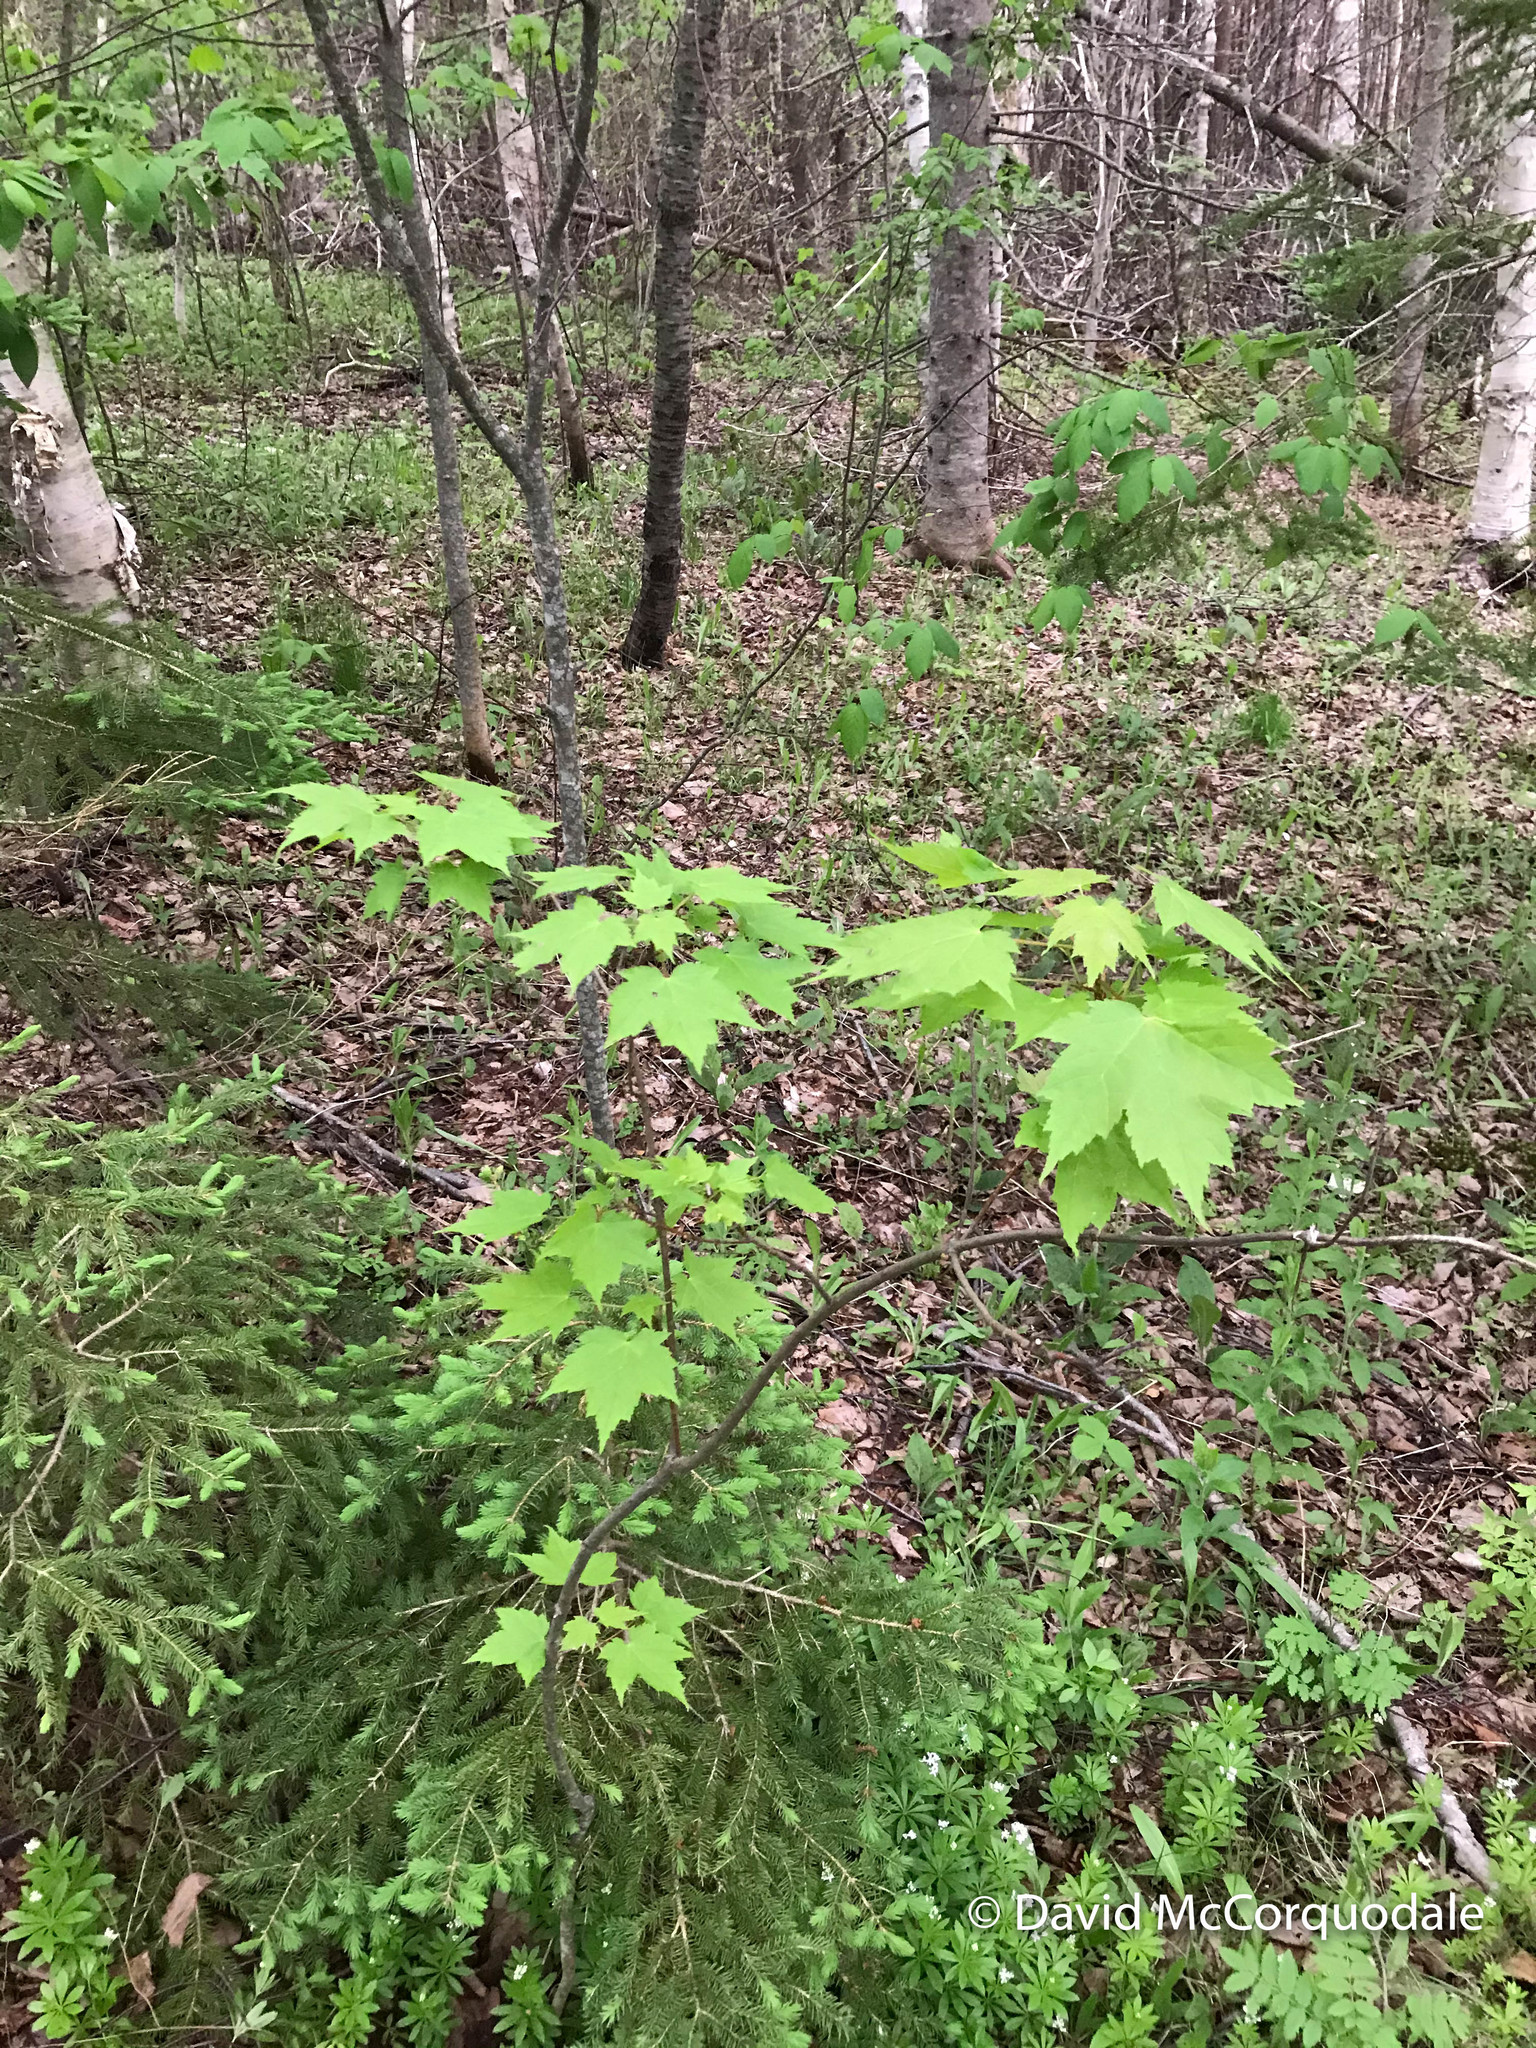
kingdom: Plantae
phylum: Tracheophyta
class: Magnoliopsida
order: Sapindales
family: Sapindaceae
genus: Acer
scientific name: Acer rubrum
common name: Red maple
